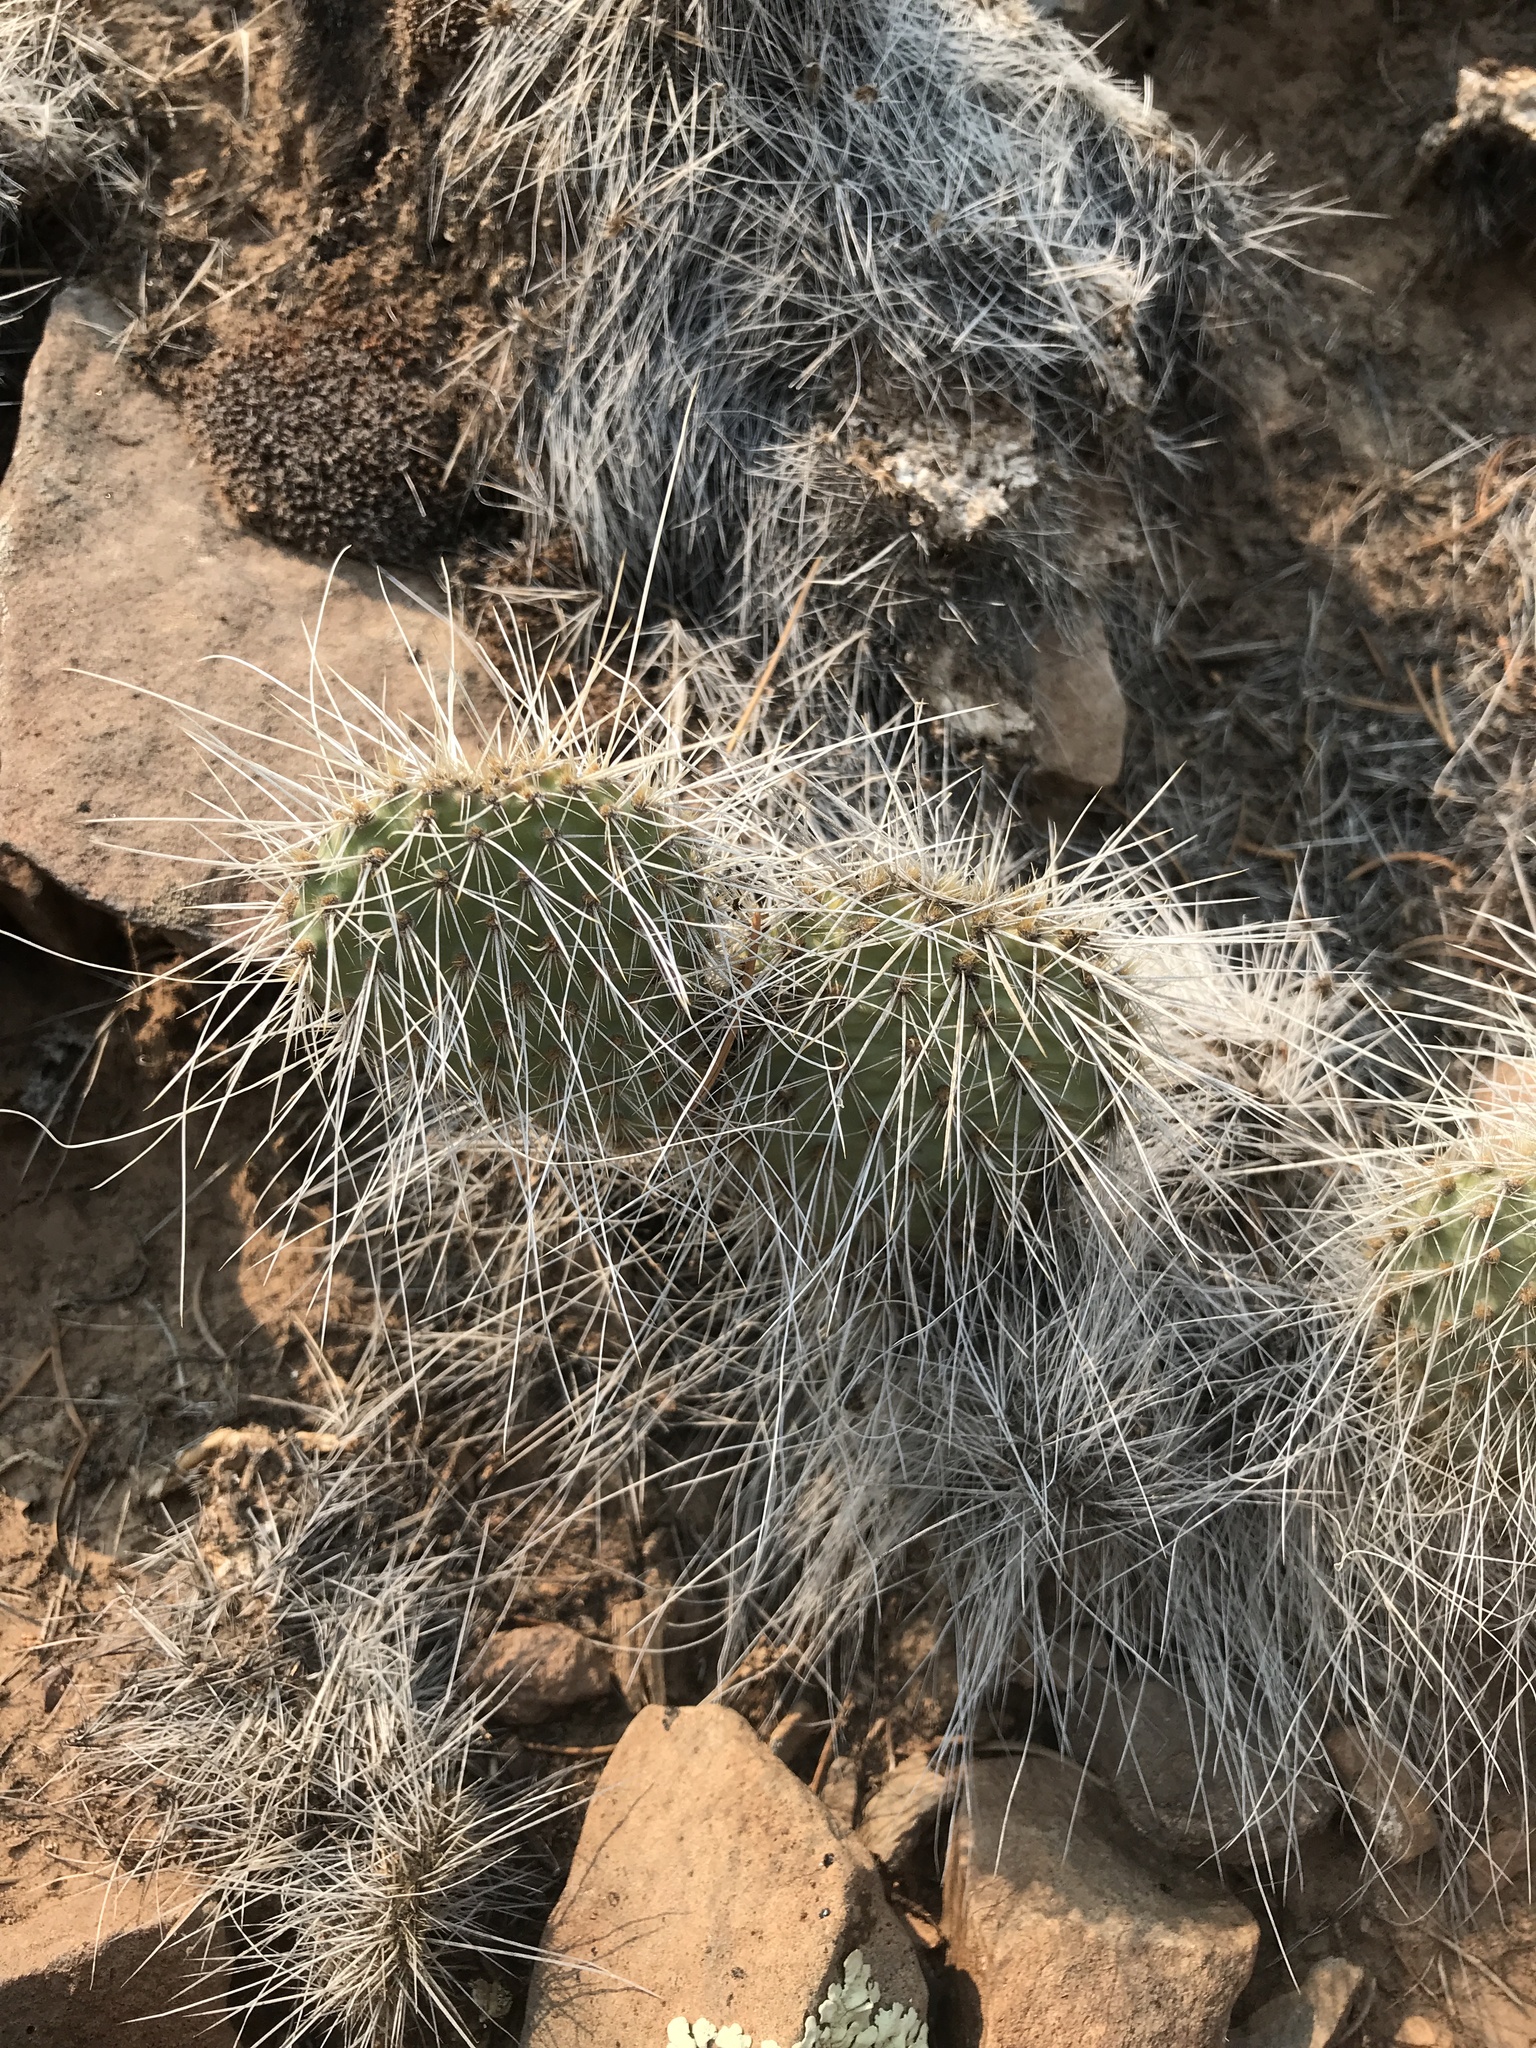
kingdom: Plantae
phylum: Tracheophyta
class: Magnoliopsida
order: Caryophyllales
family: Cactaceae
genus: Opuntia
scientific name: Opuntia polyacantha
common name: Plains prickly-pear
